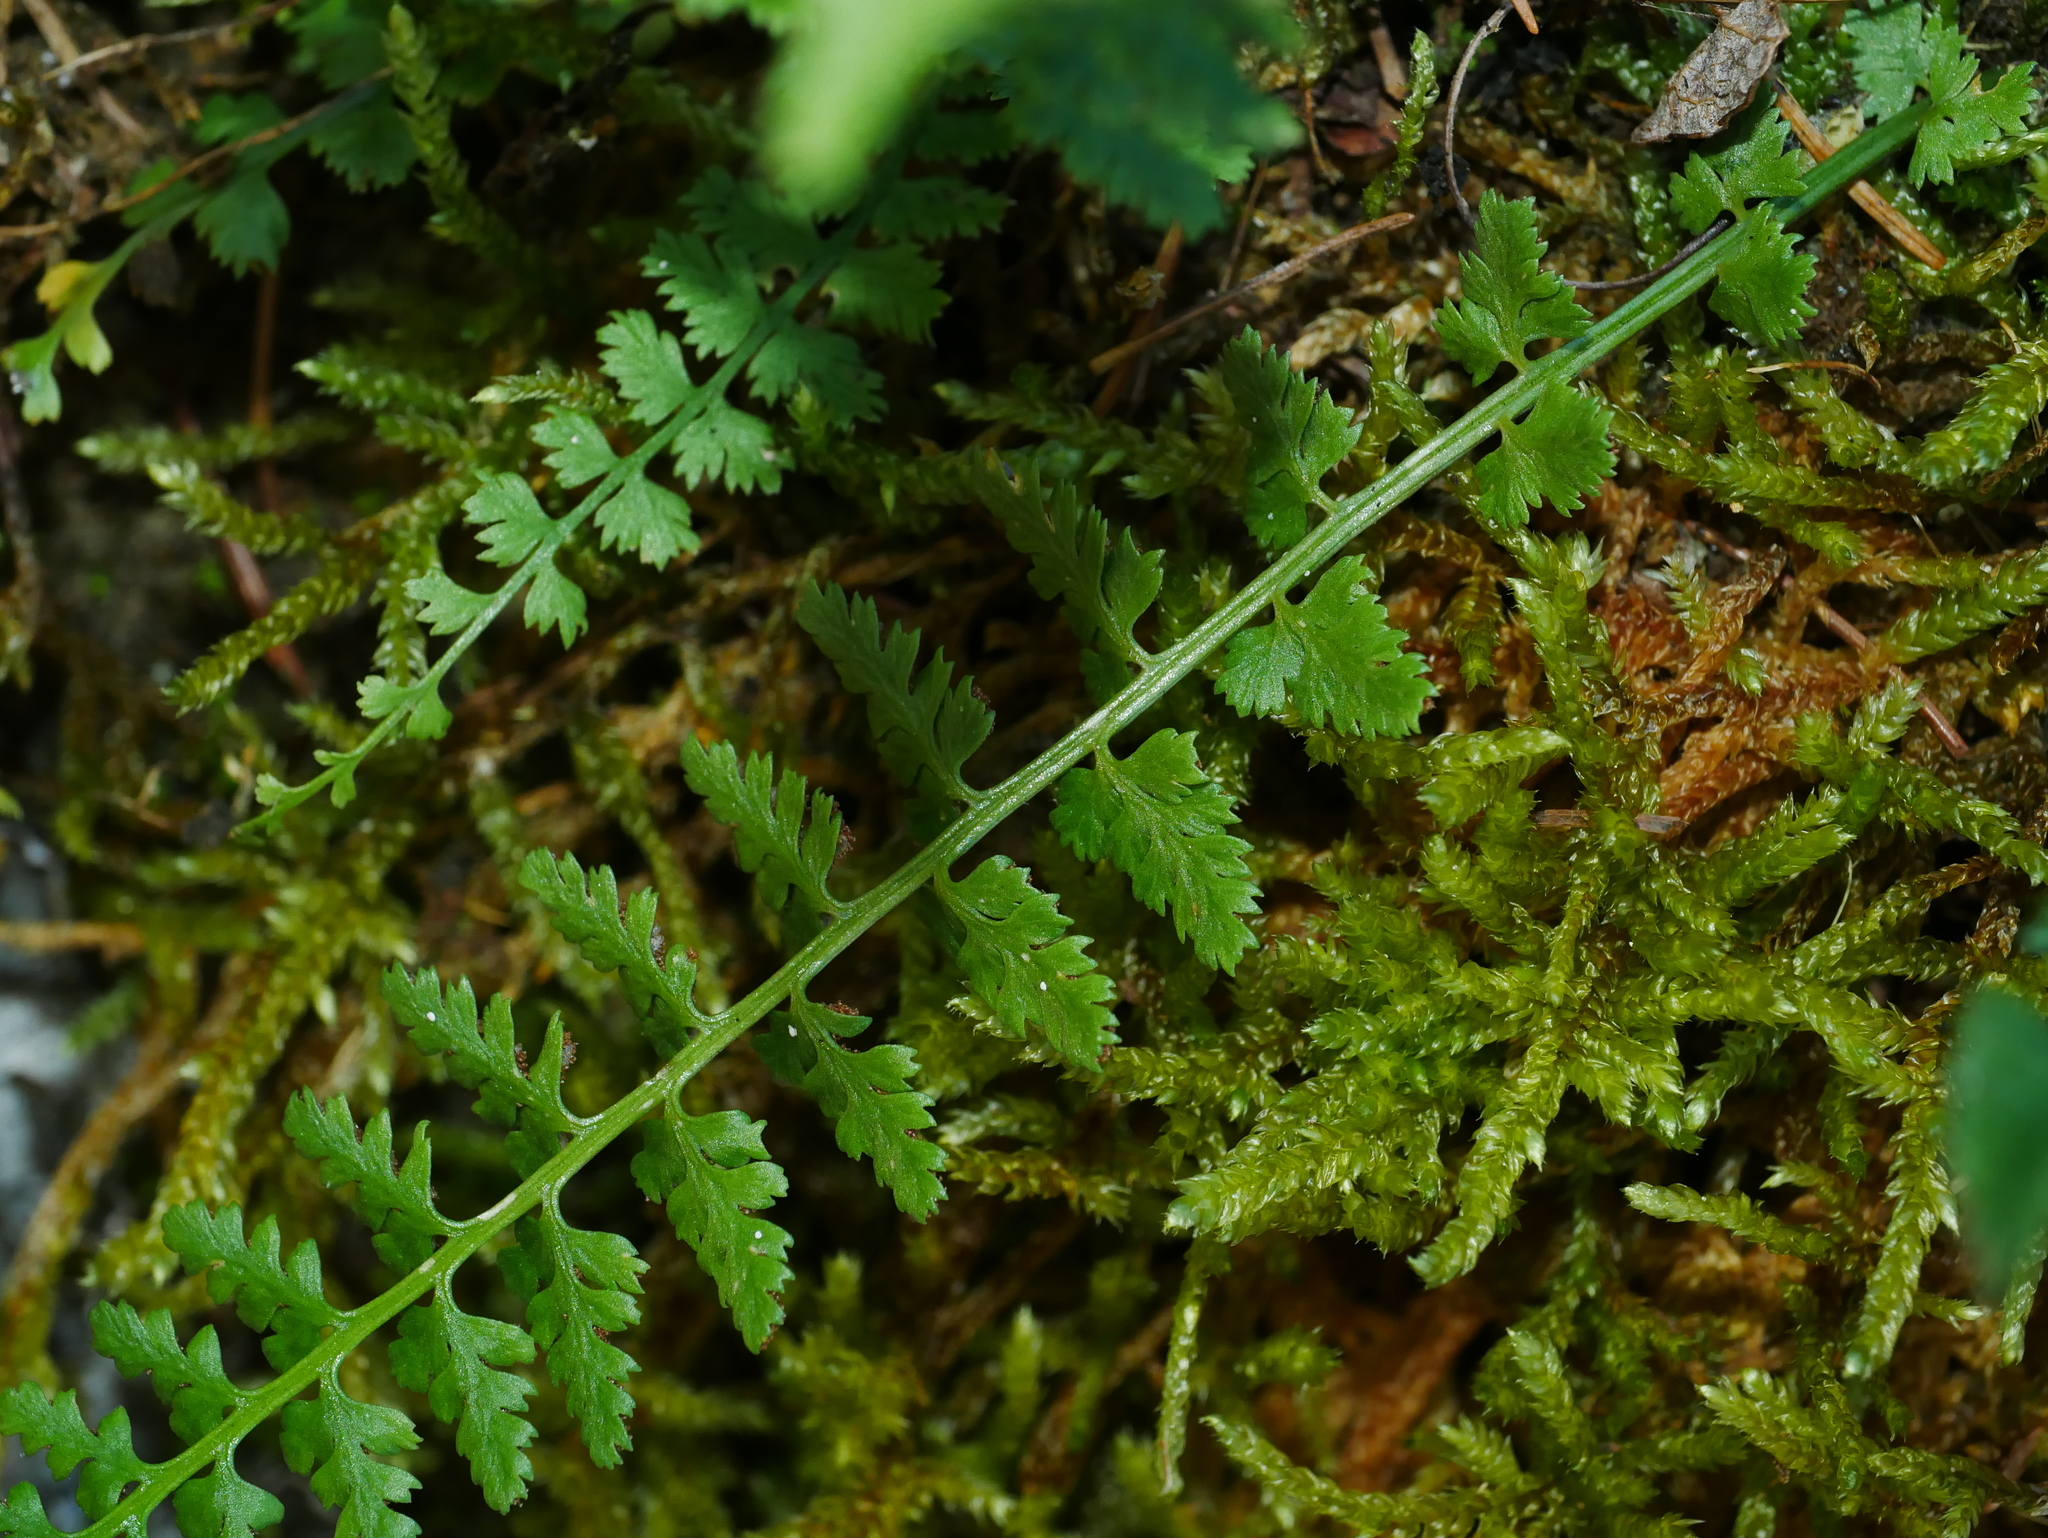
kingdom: Plantae
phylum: Tracheophyta
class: Polypodiopsida
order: Polypodiales
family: Aspleniaceae
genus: Asplenium
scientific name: Asplenium incisum
